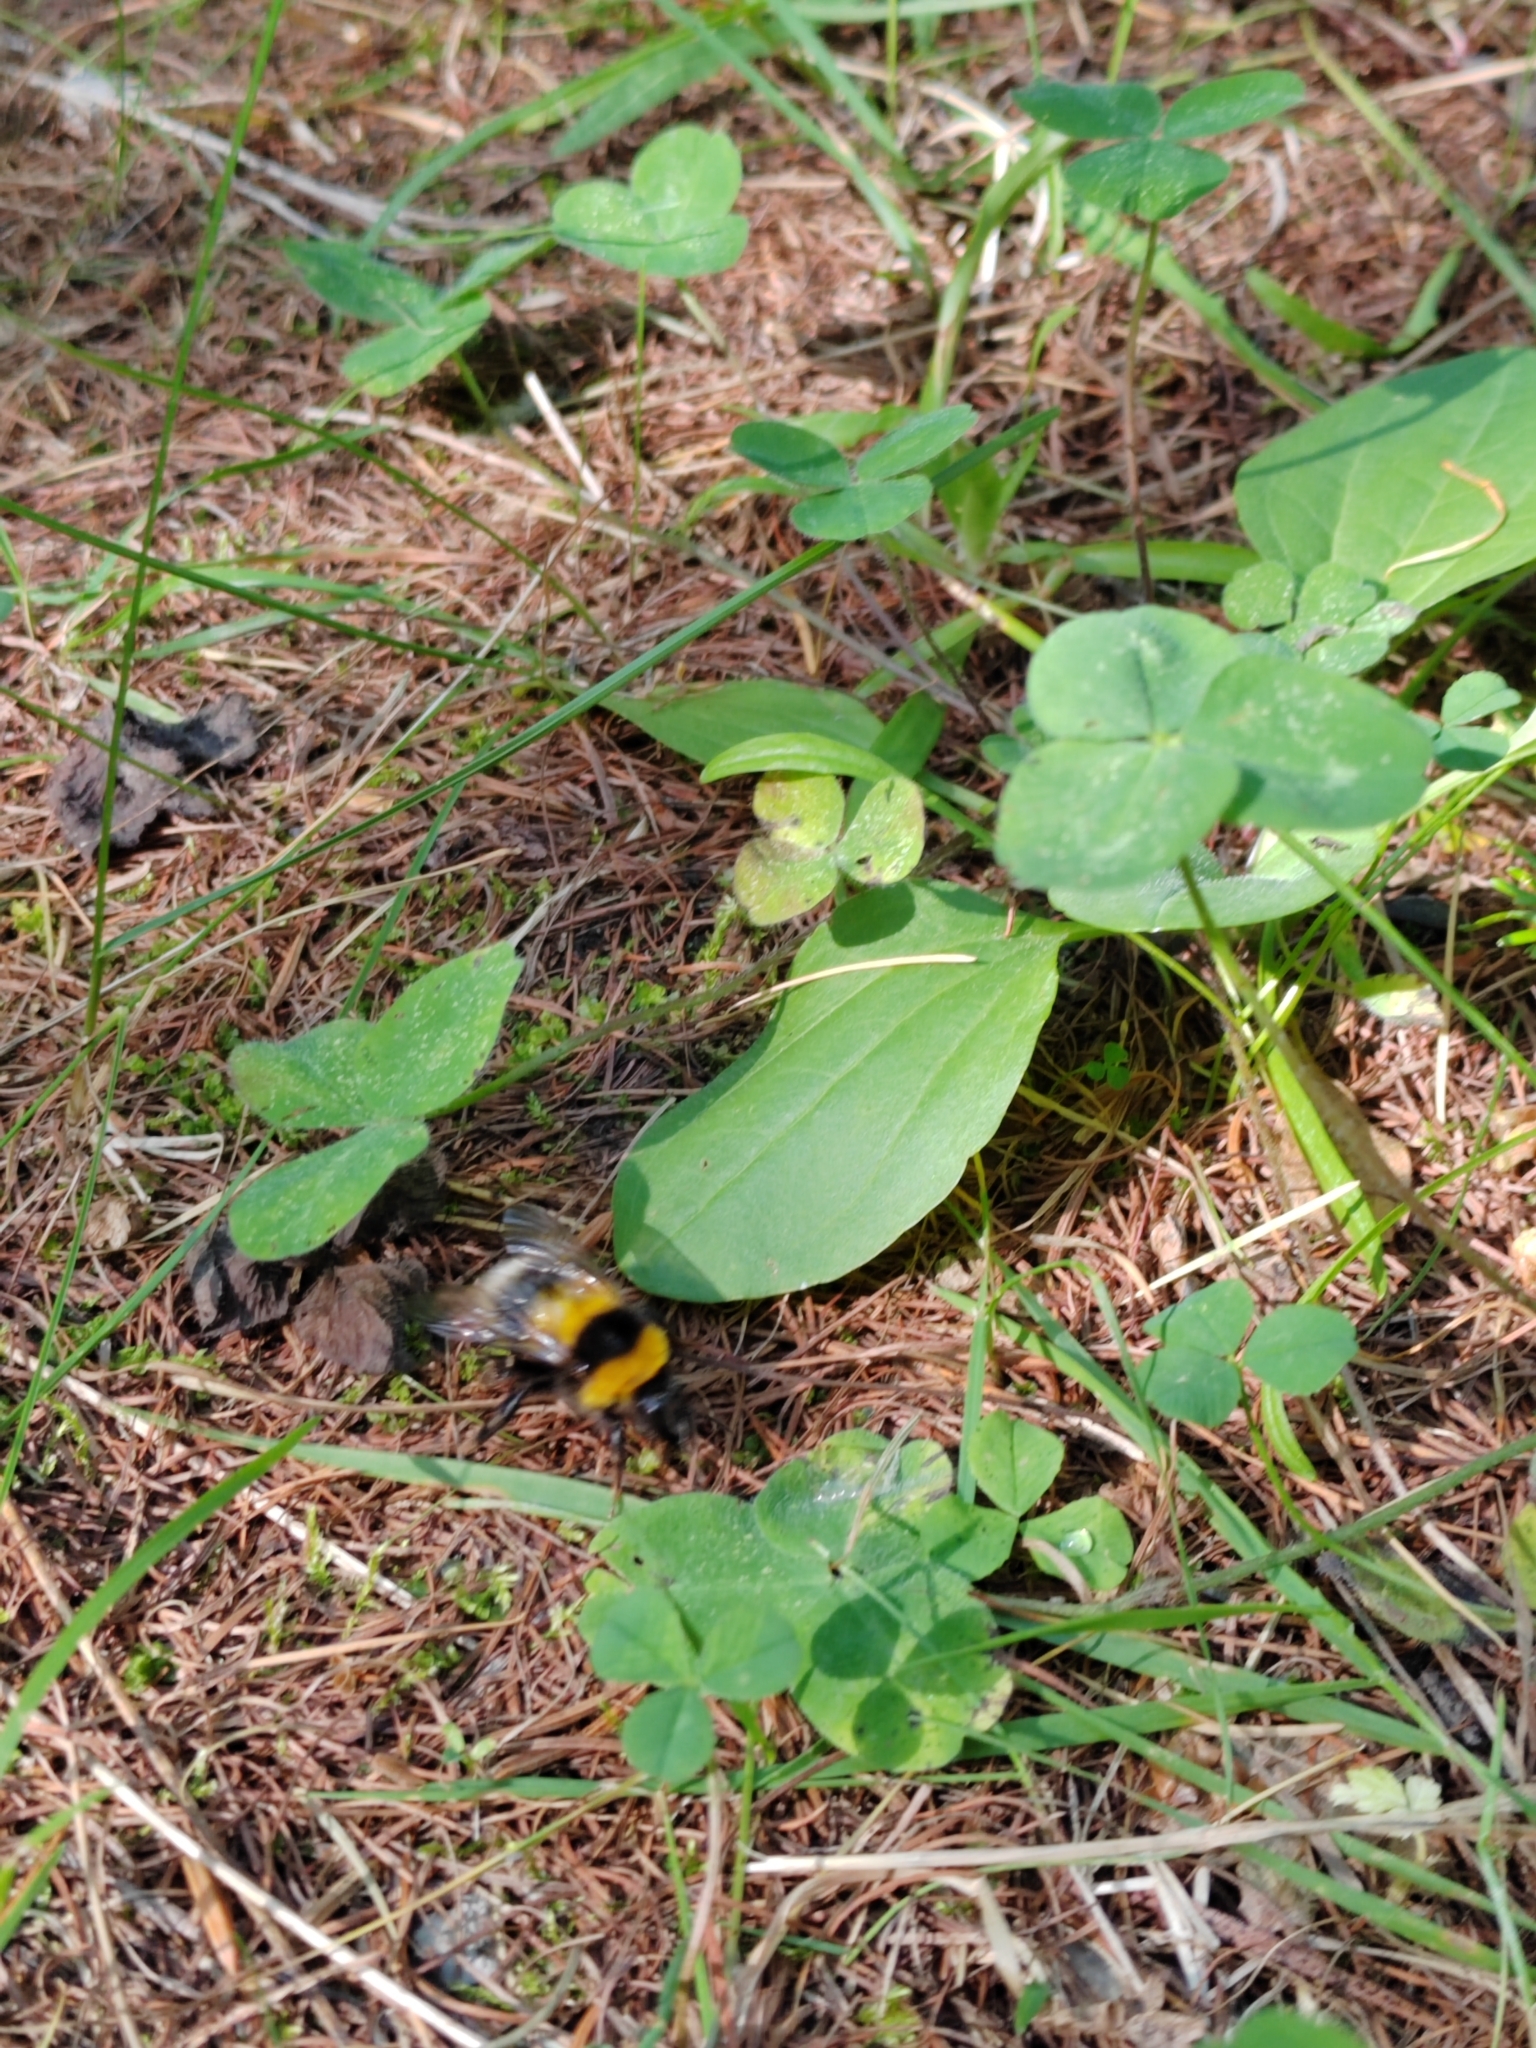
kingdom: Animalia
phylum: Arthropoda
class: Insecta
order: Hymenoptera
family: Apidae
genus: Bombus
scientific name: Bombus hortorum
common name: Garden bumblebee
